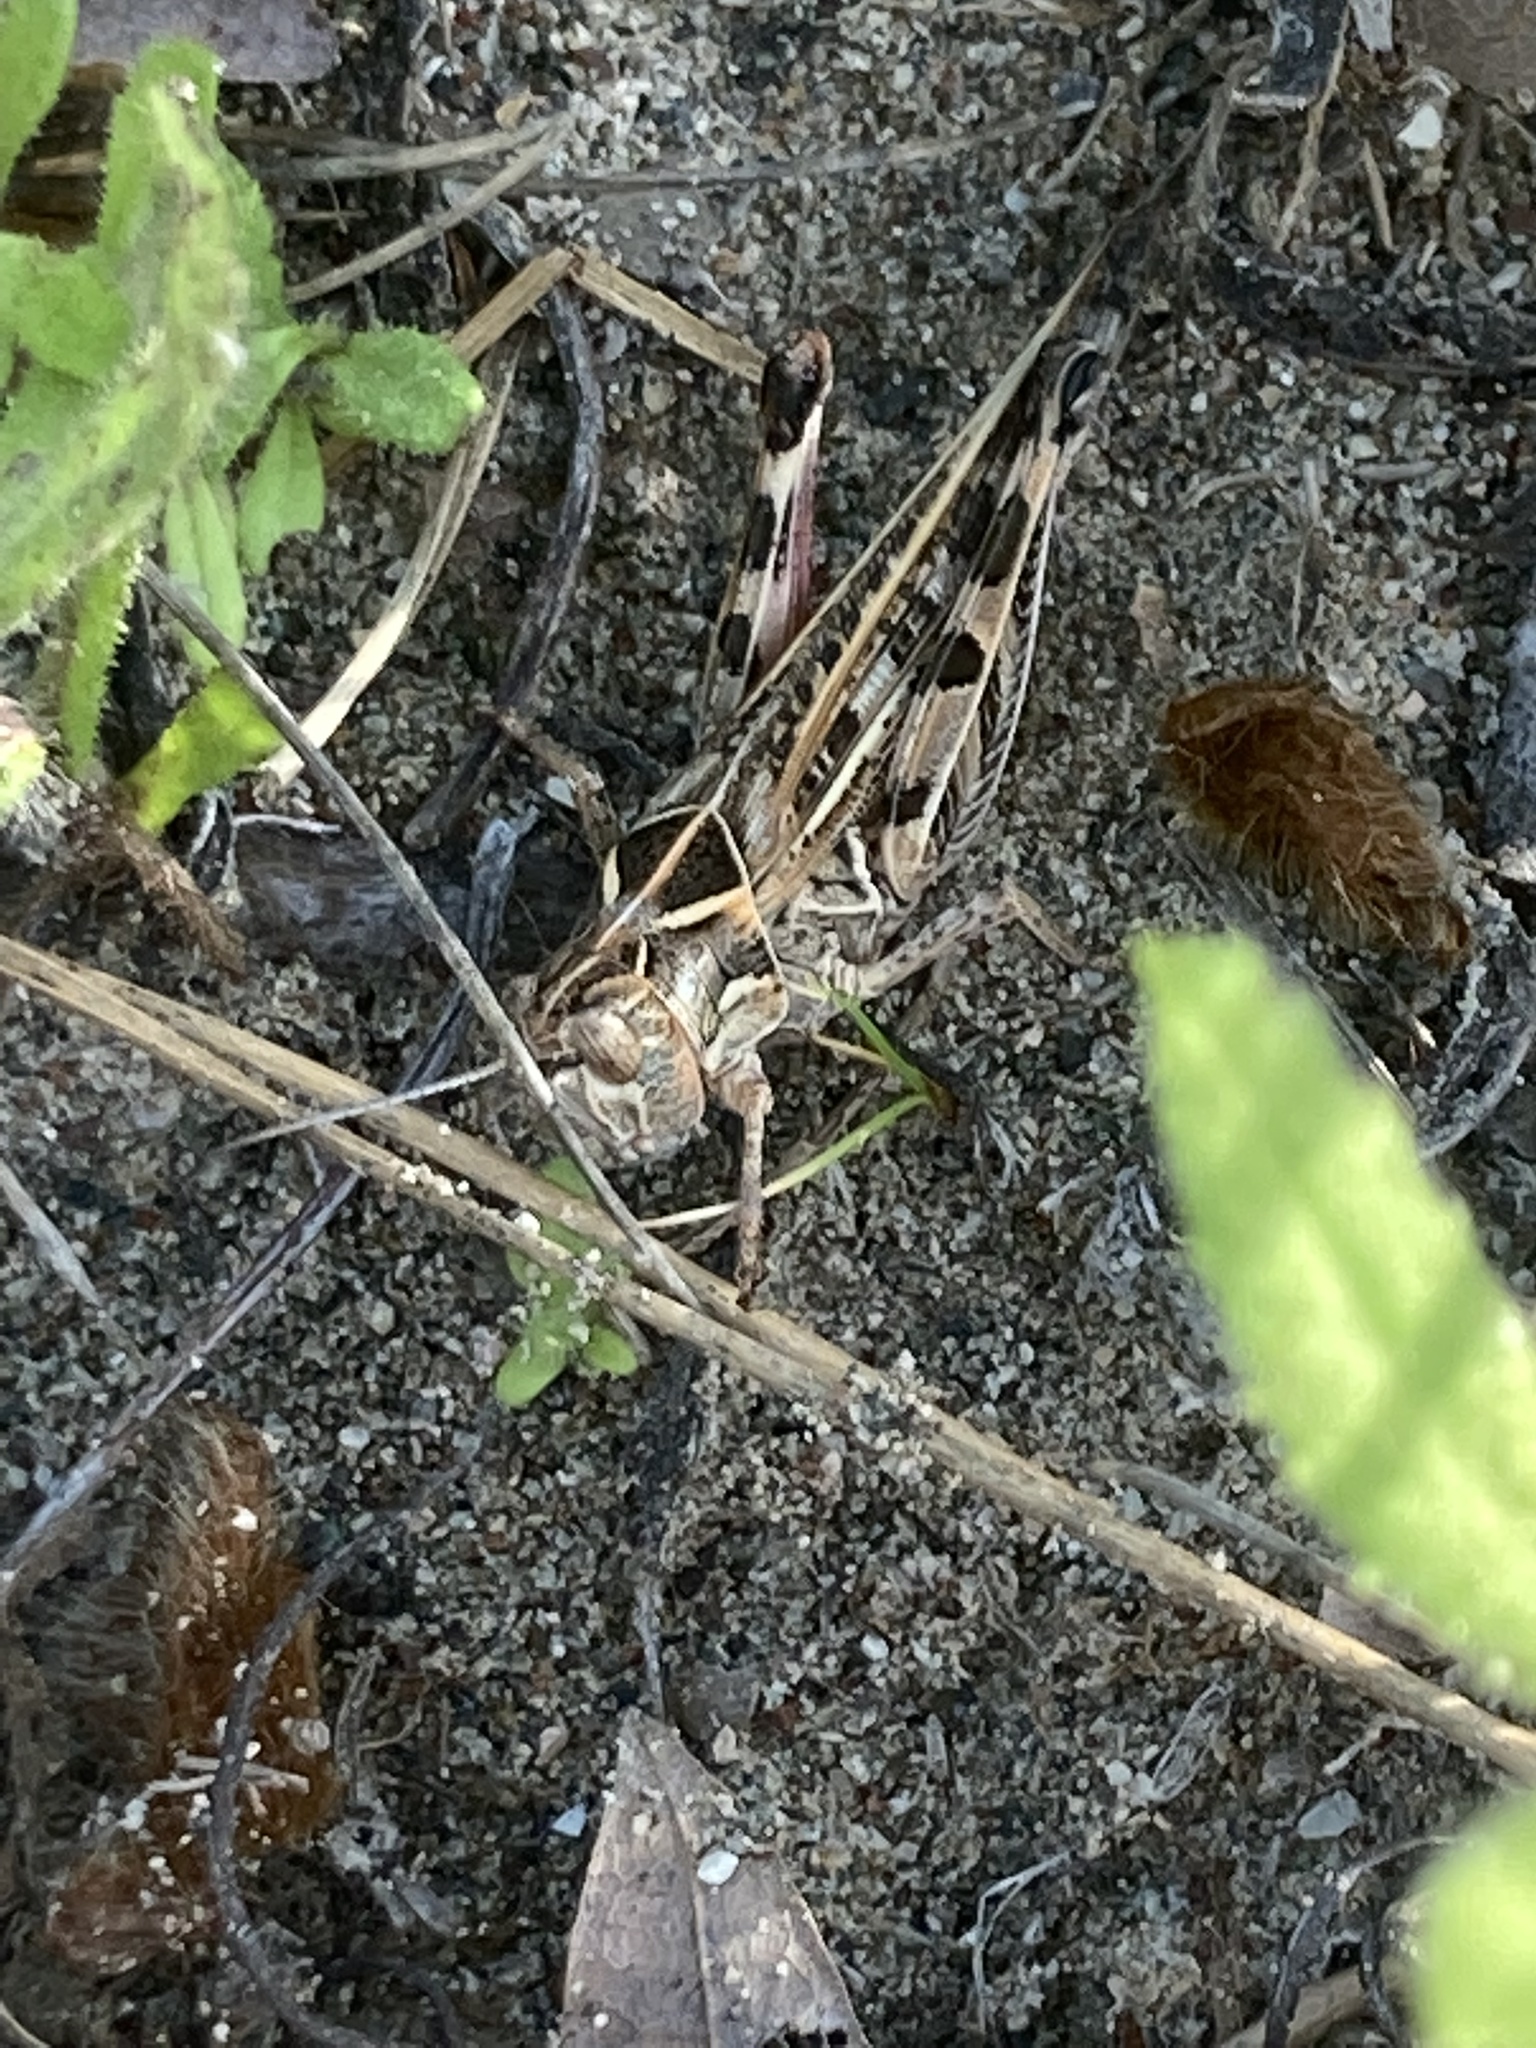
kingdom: Animalia
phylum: Arthropoda
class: Insecta
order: Orthoptera
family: Acrididae
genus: Dociostaurus
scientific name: Dociostaurus maroccanus
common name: Moroccan locust
